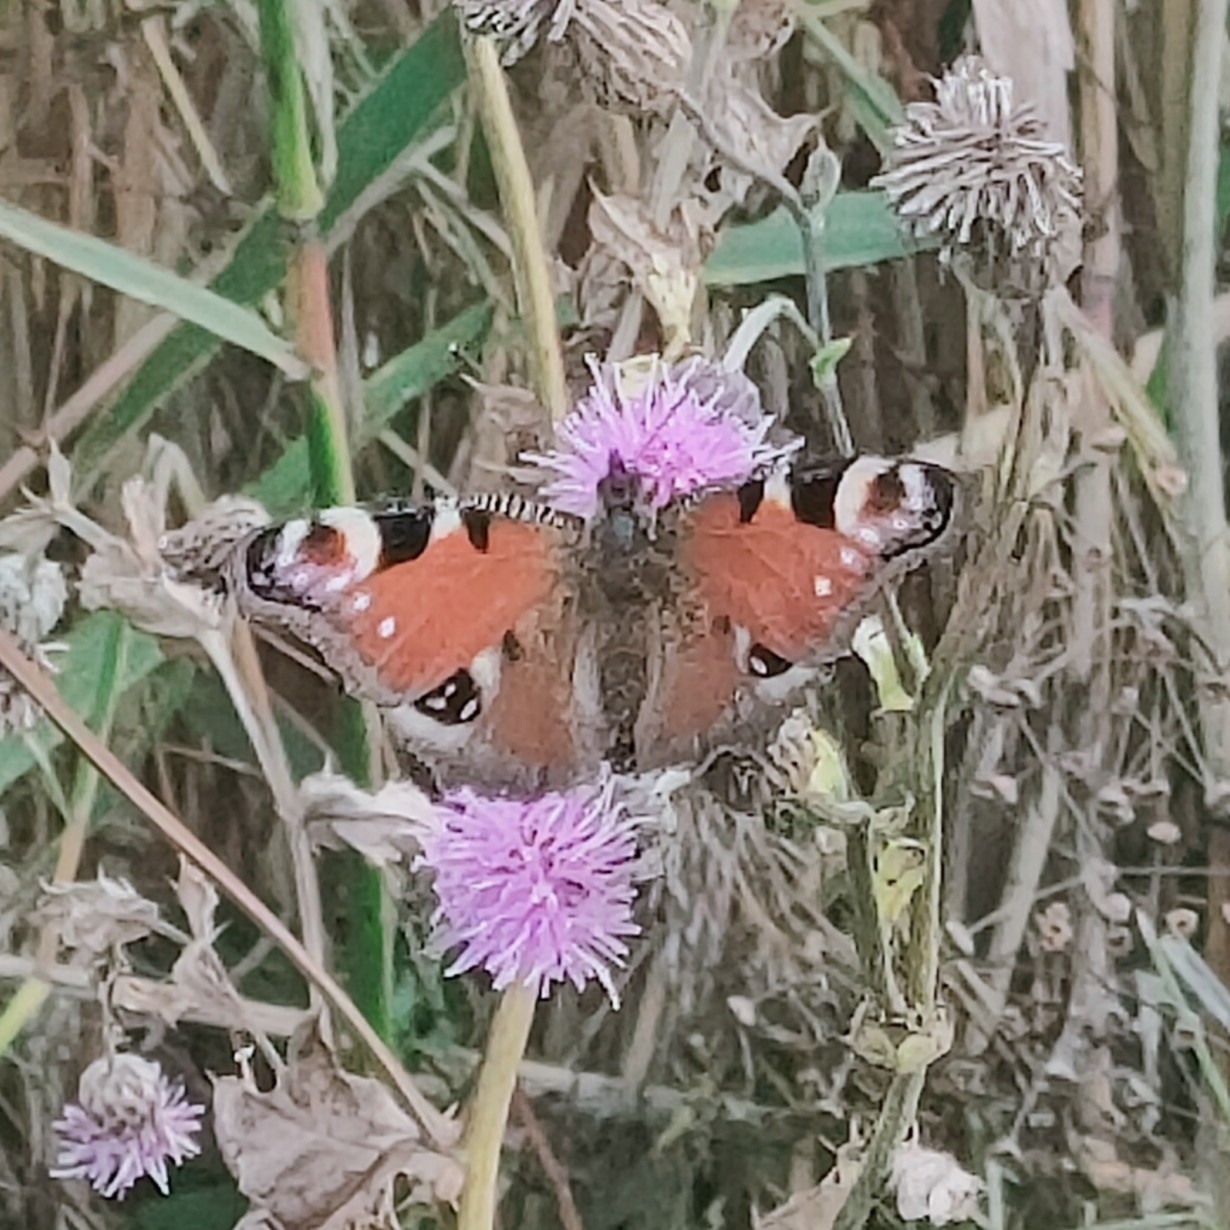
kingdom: Animalia
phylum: Arthropoda
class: Insecta
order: Lepidoptera
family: Nymphalidae
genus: Aglais
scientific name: Aglais io
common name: Peacock
